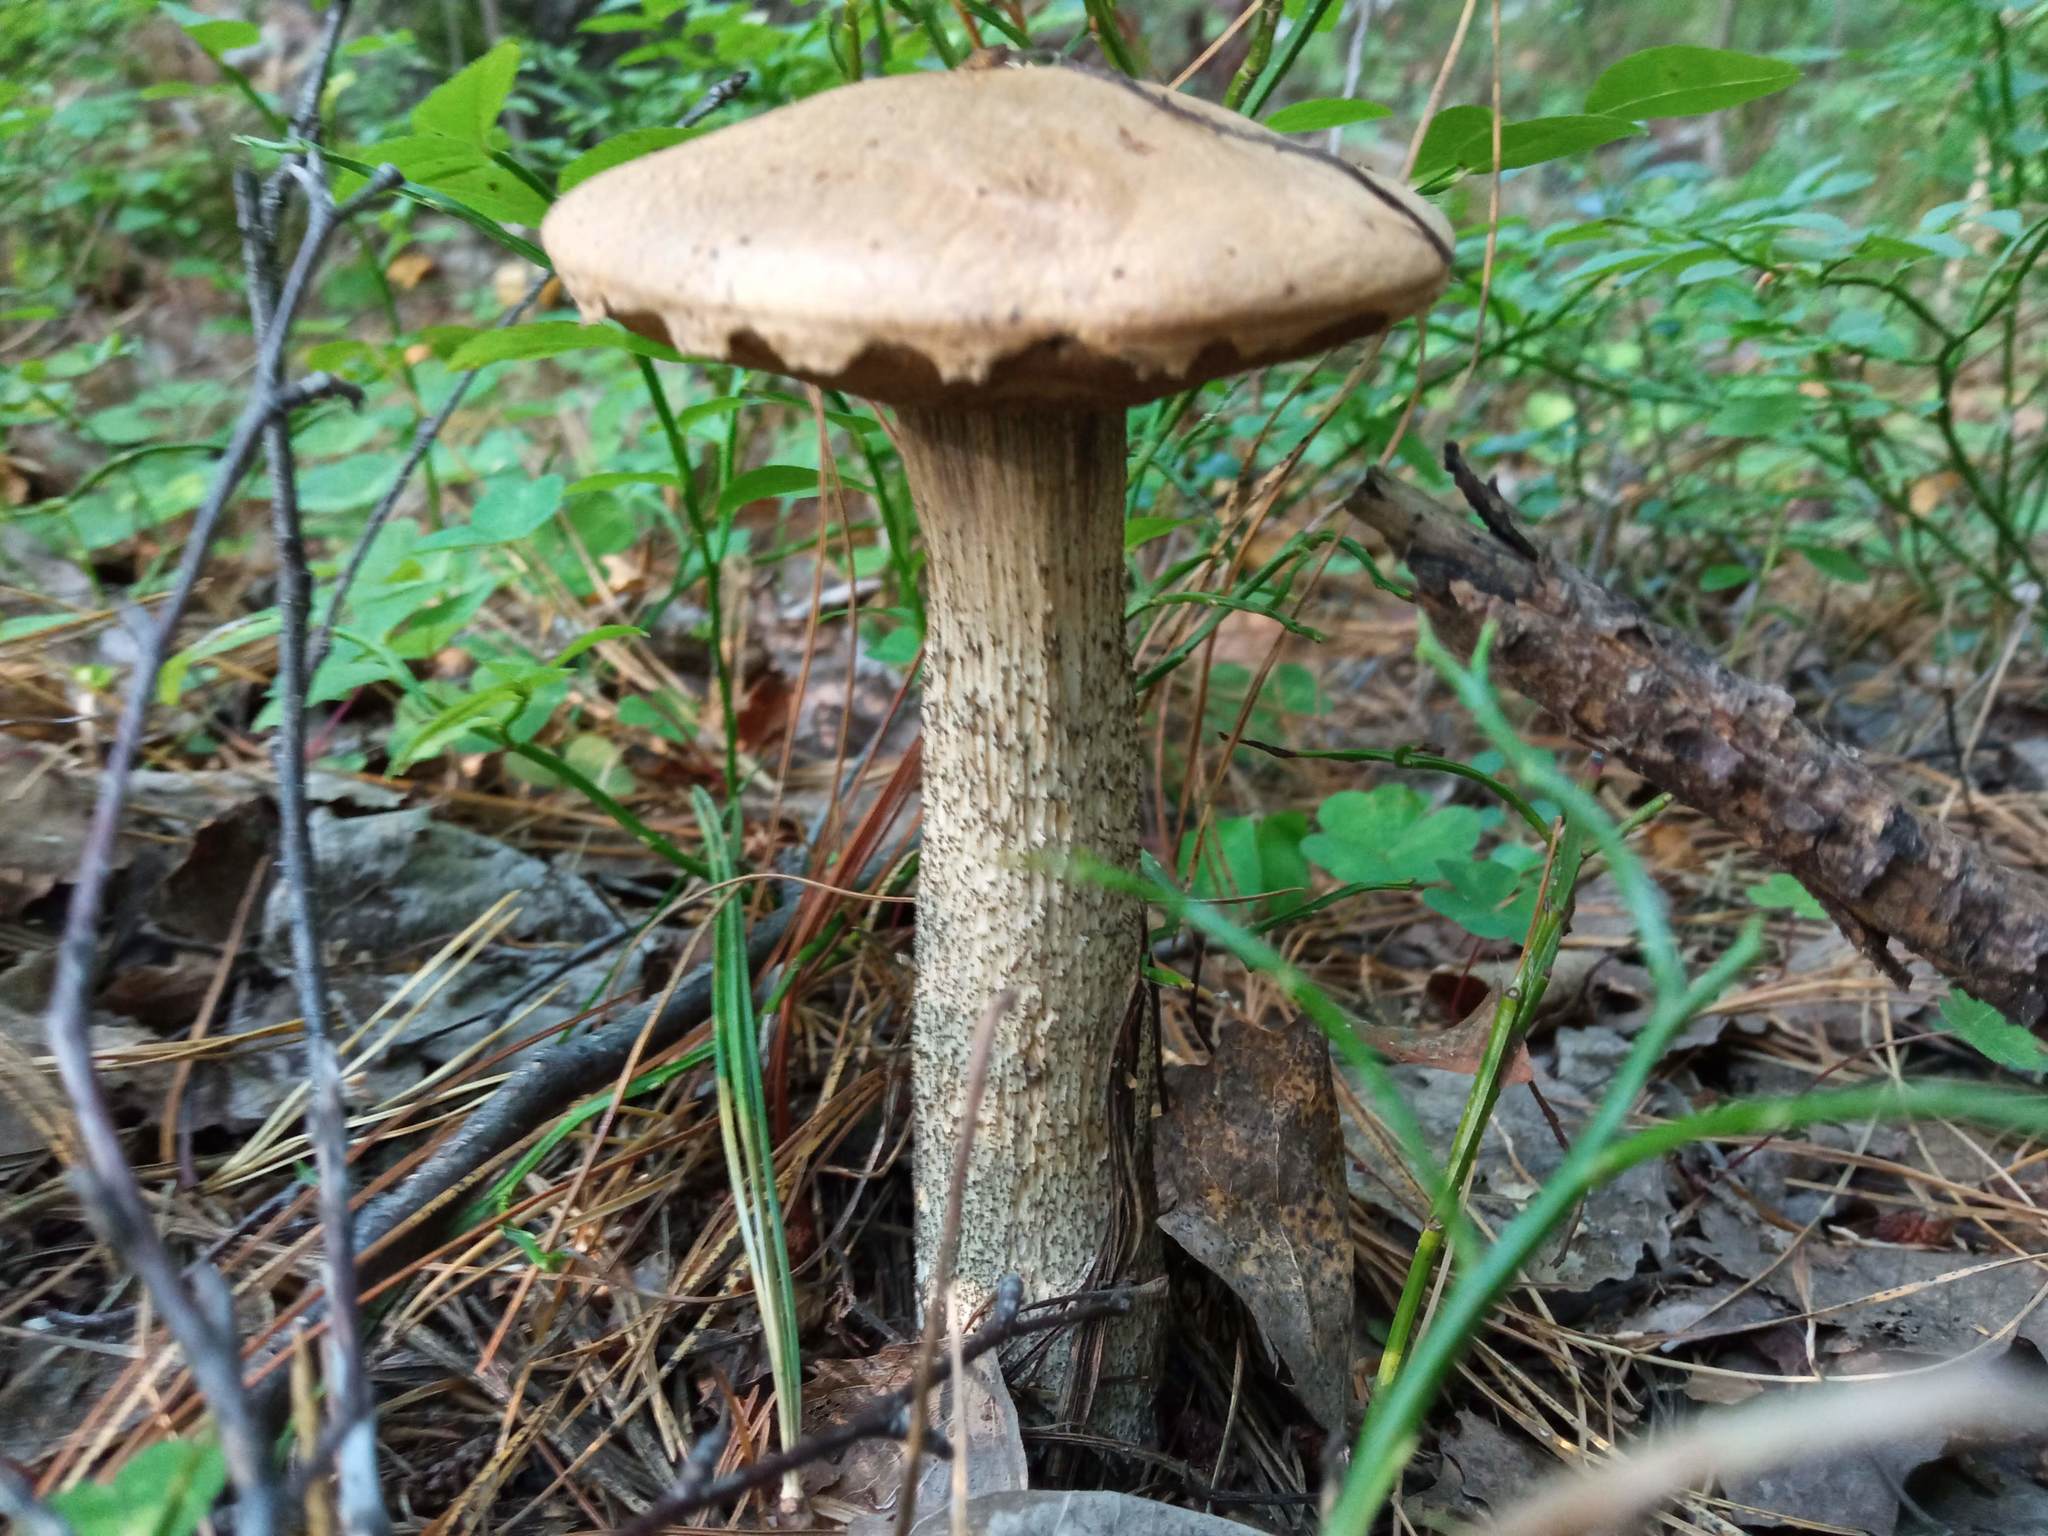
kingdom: Fungi
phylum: Basidiomycota
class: Agaricomycetes
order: Boletales
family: Boletaceae
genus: Leccinum
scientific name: Leccinum versipelle
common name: Orange birch bolete
